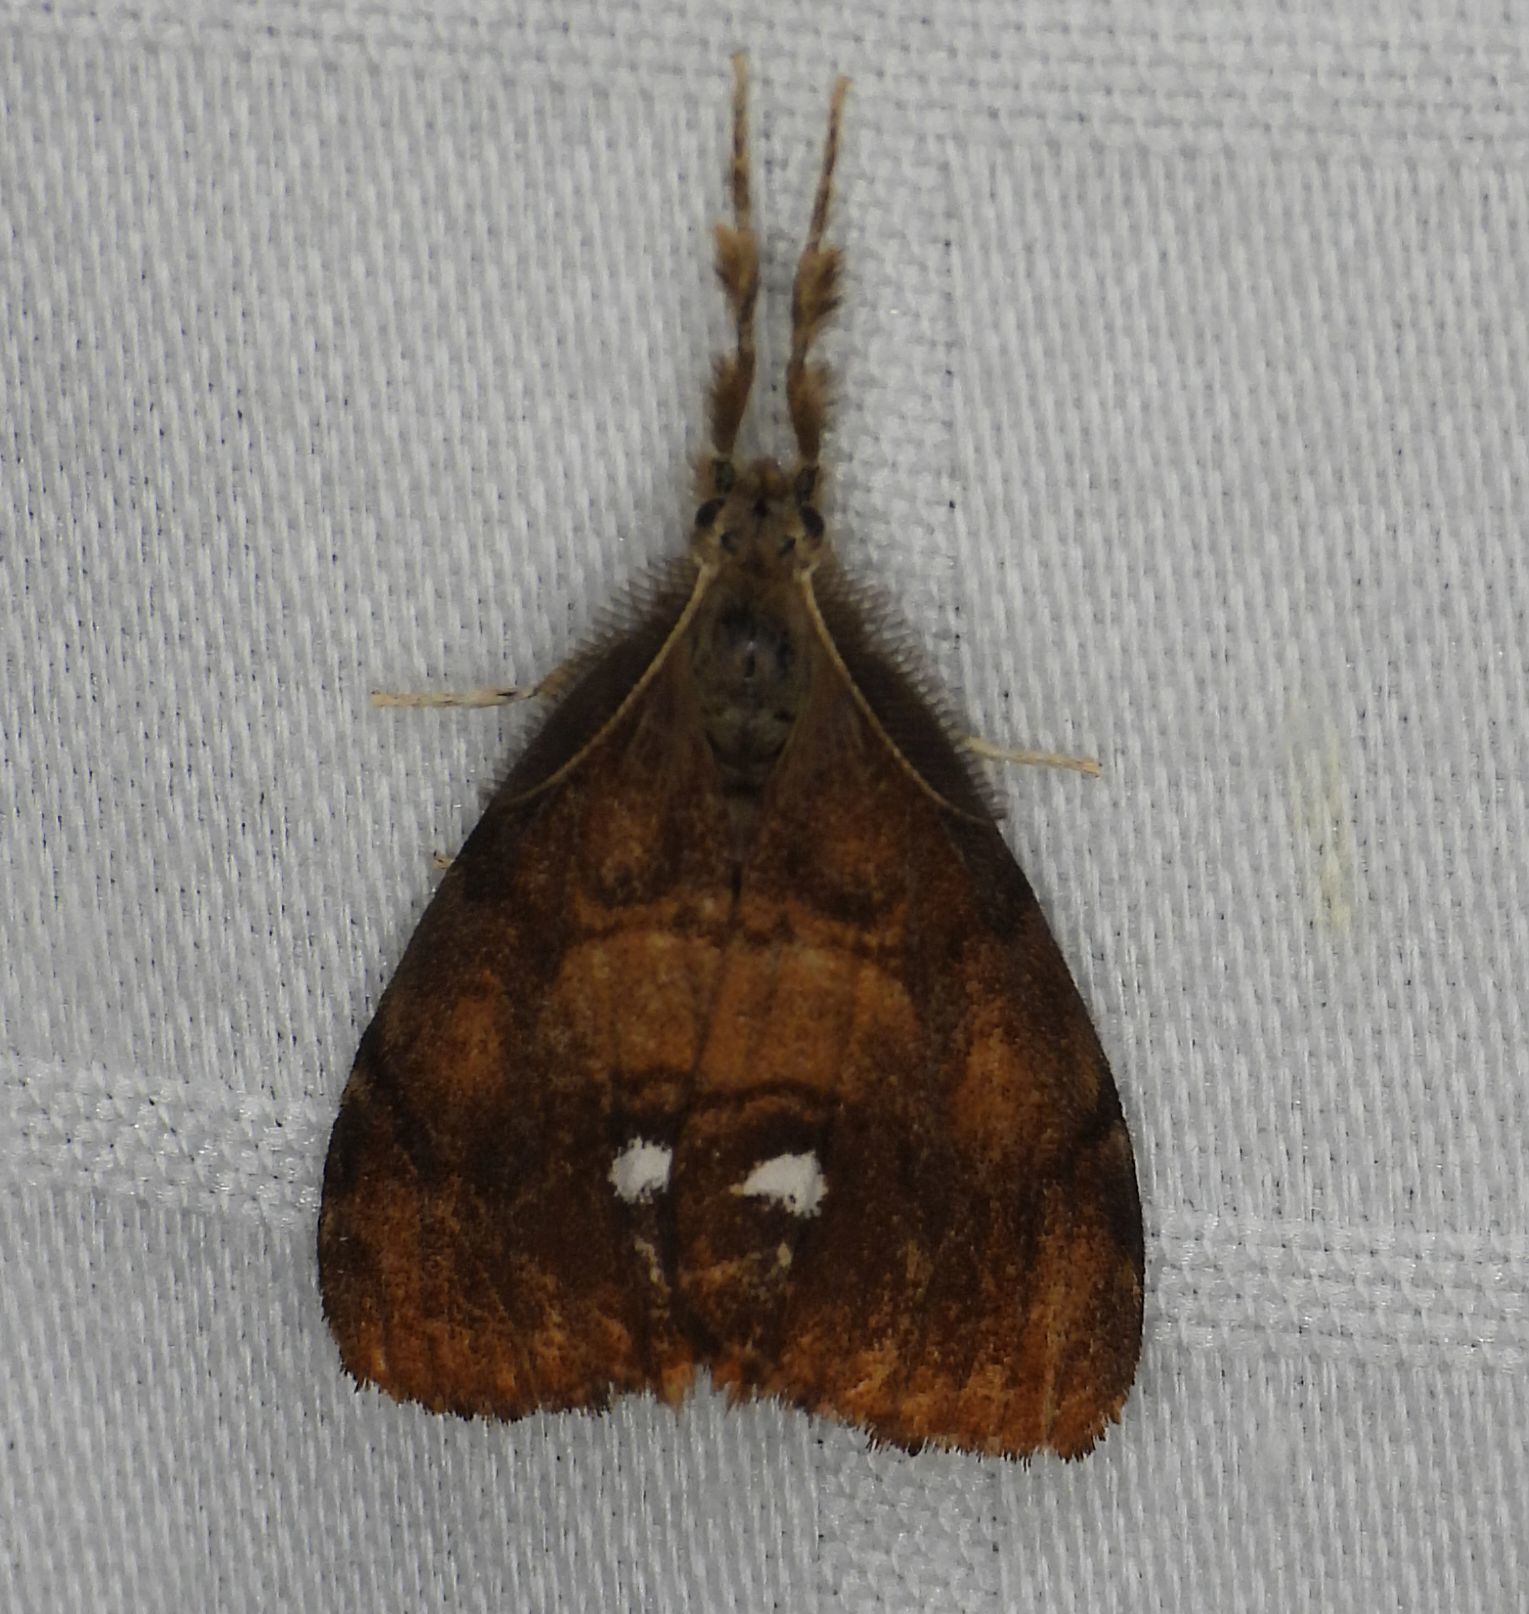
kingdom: Animalia
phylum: Arthropoda
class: Insecta
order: Lepidoptera
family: Erebidae
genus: Orgyia
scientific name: Orgyia antiqua
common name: Vapourer
